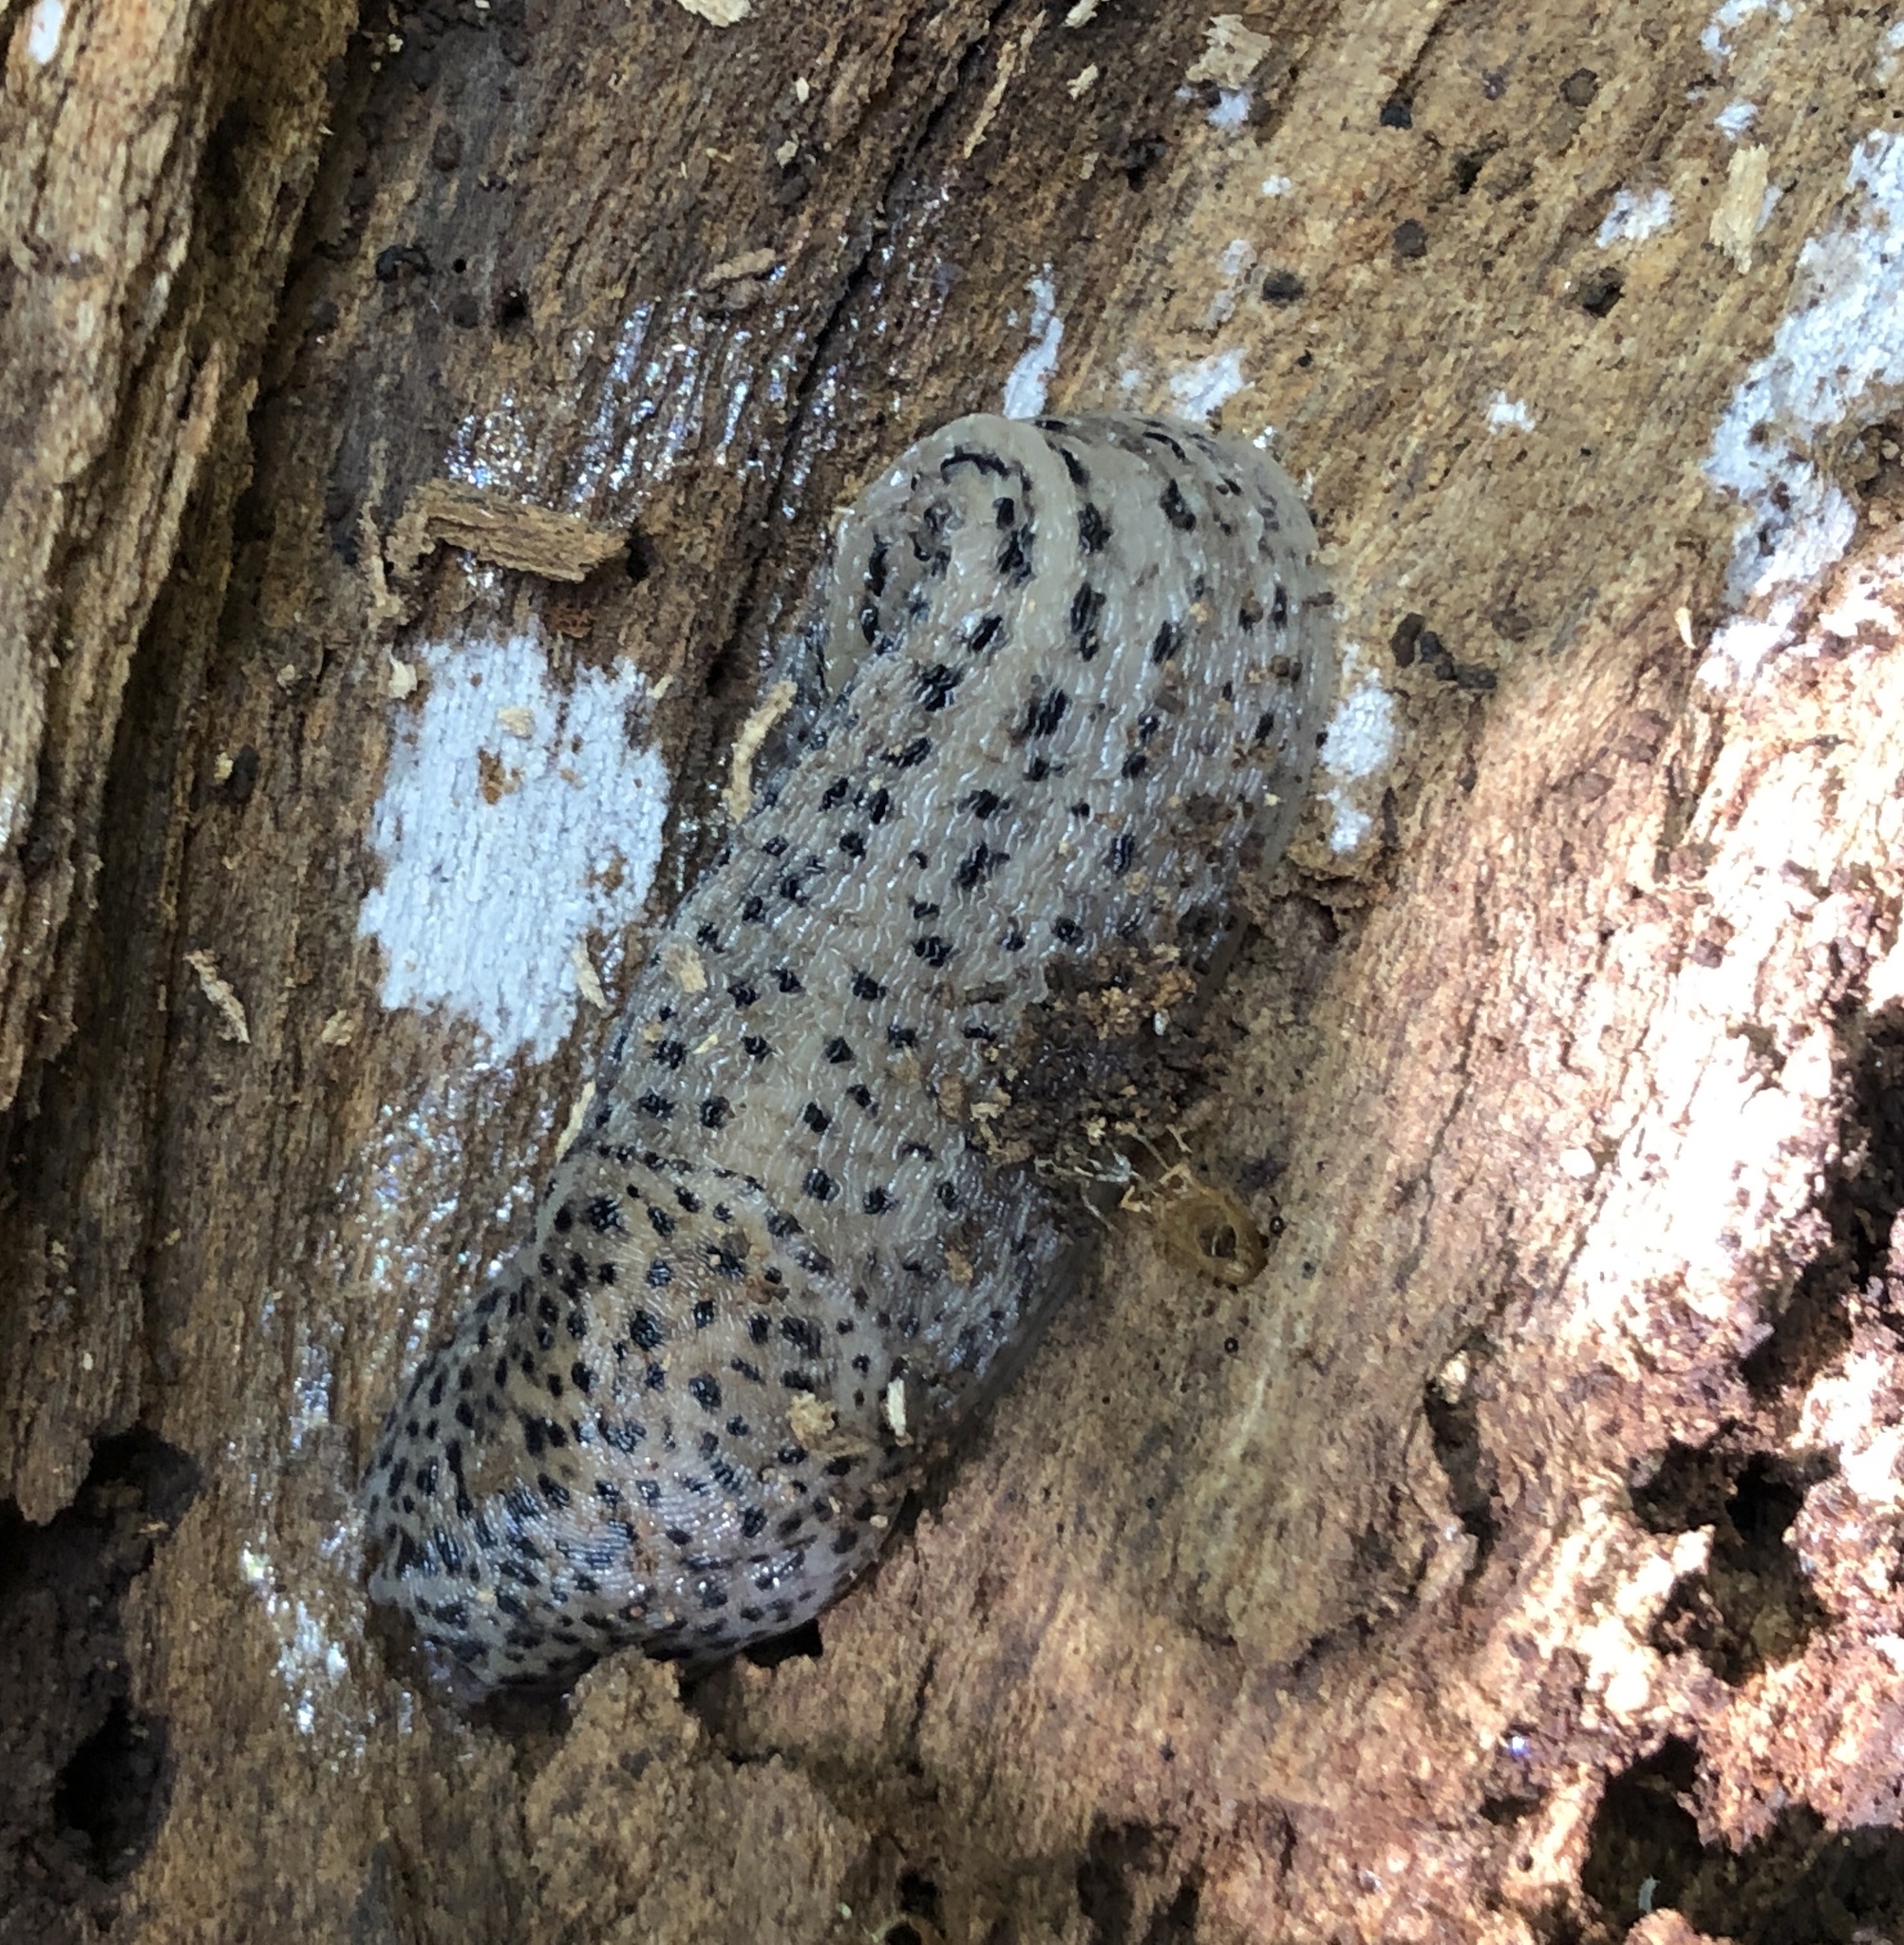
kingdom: Animalia
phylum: Mollusca
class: Gastropoda
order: Stylommatophora
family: Limacidae
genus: Limax
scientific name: Limax maximus
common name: Great grey slug
